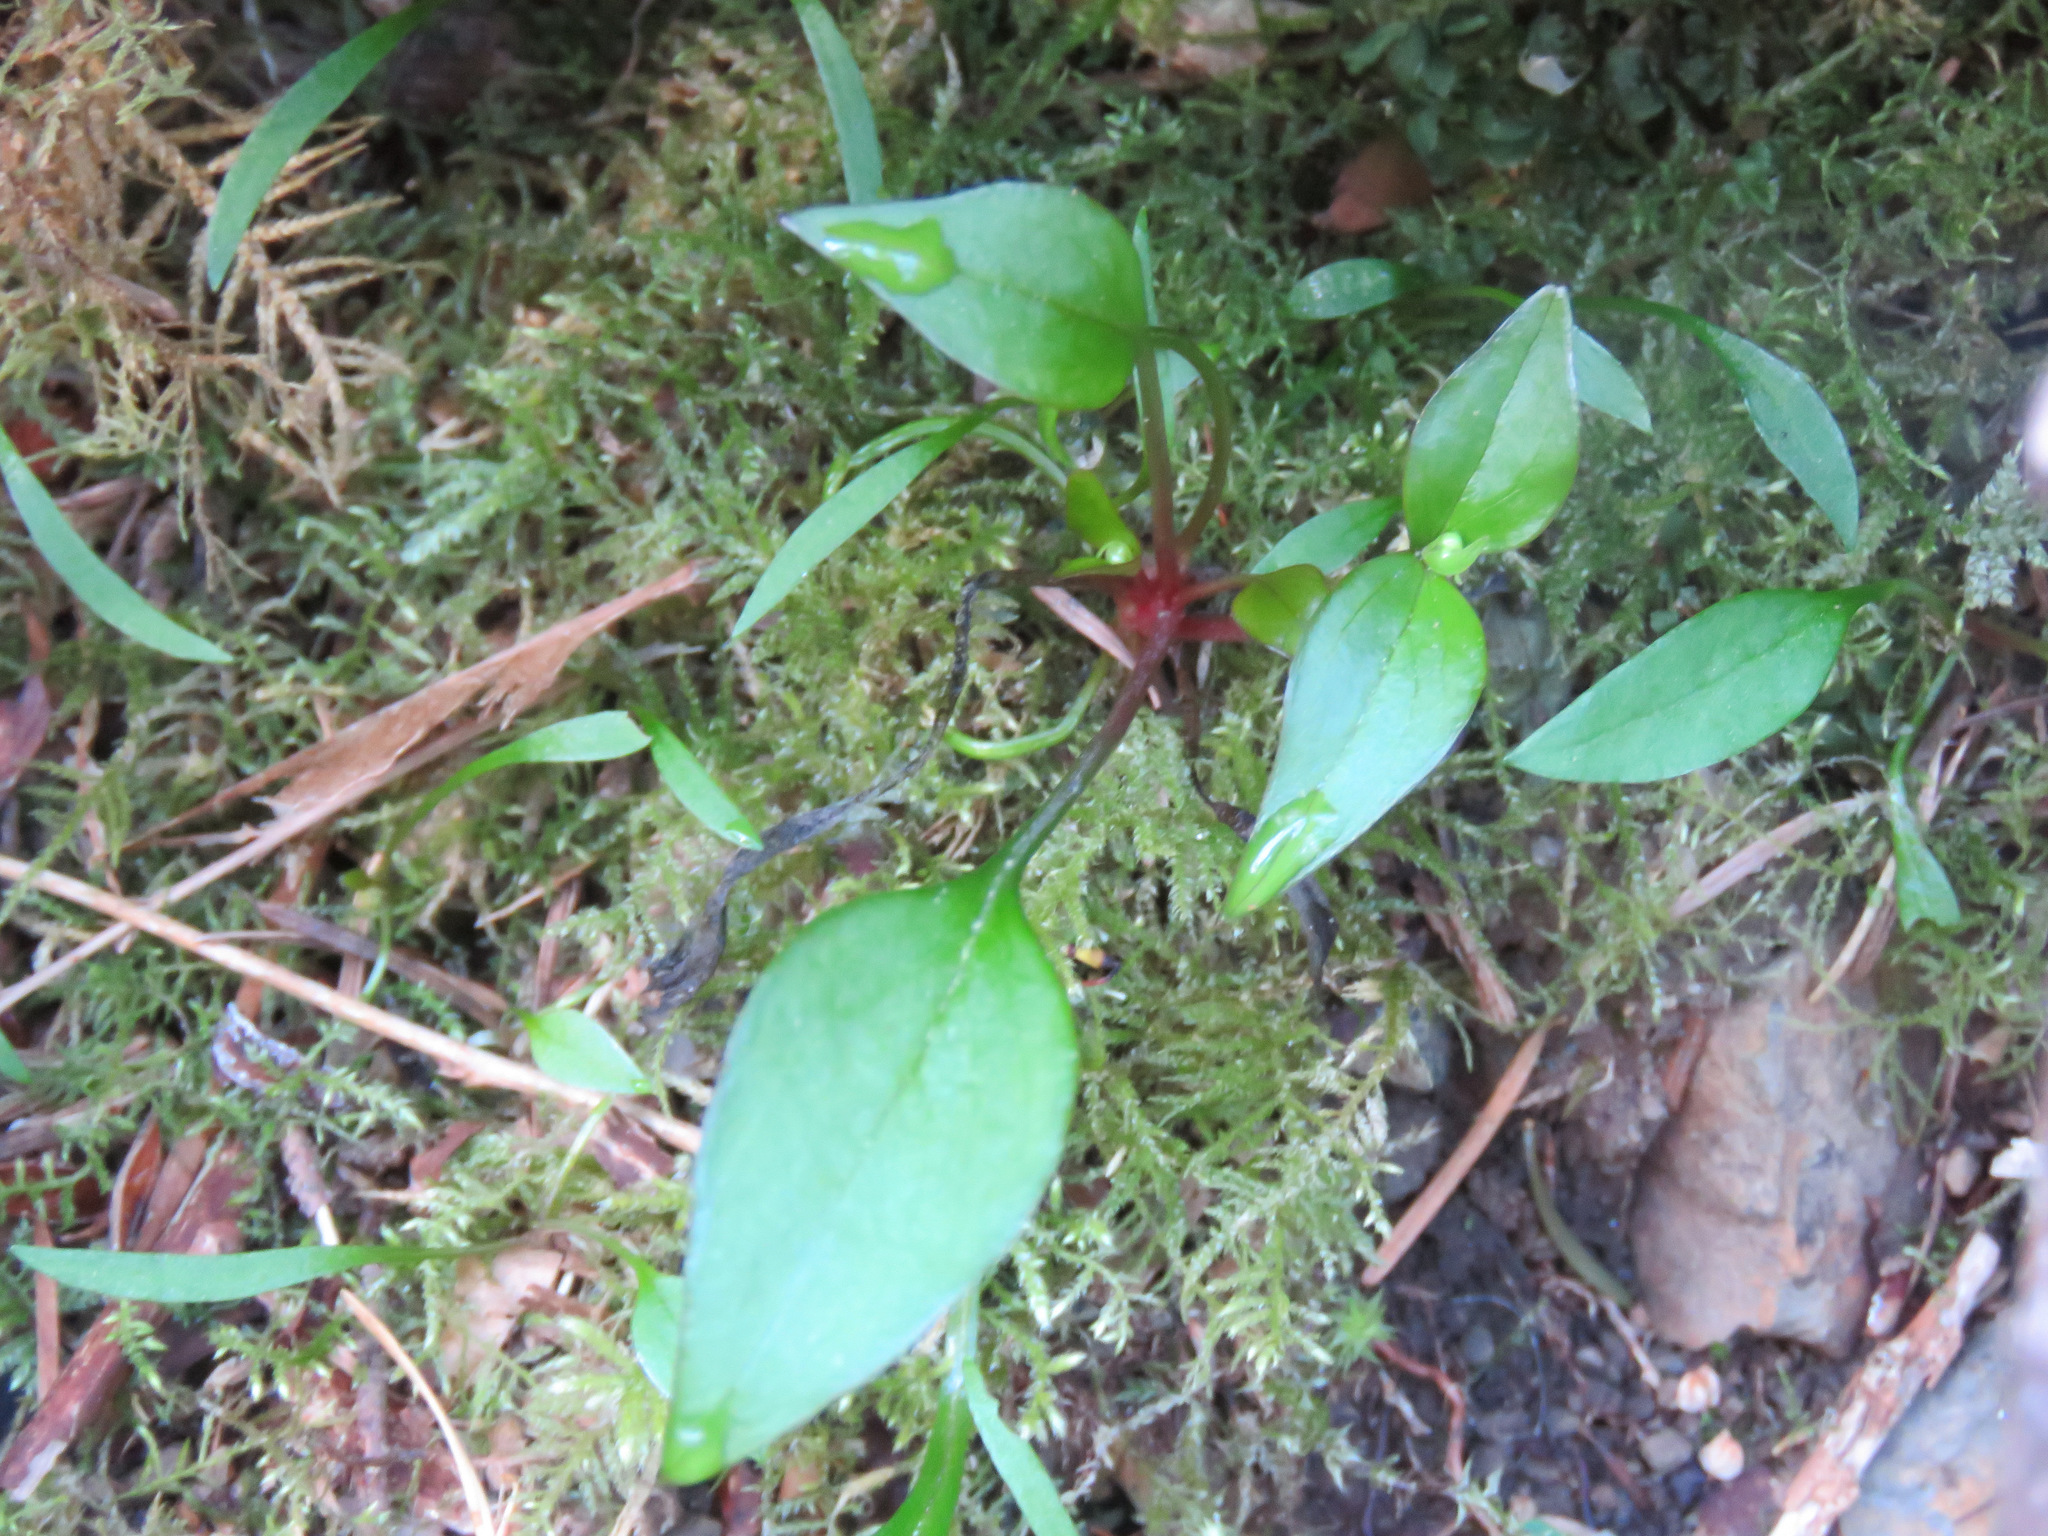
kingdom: Plantae
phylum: Tracheophyta
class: Magnoliopsida
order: Caryophyllales
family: Montiaceae
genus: Claytonia
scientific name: Claytonia sibirica
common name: Pink purslane
